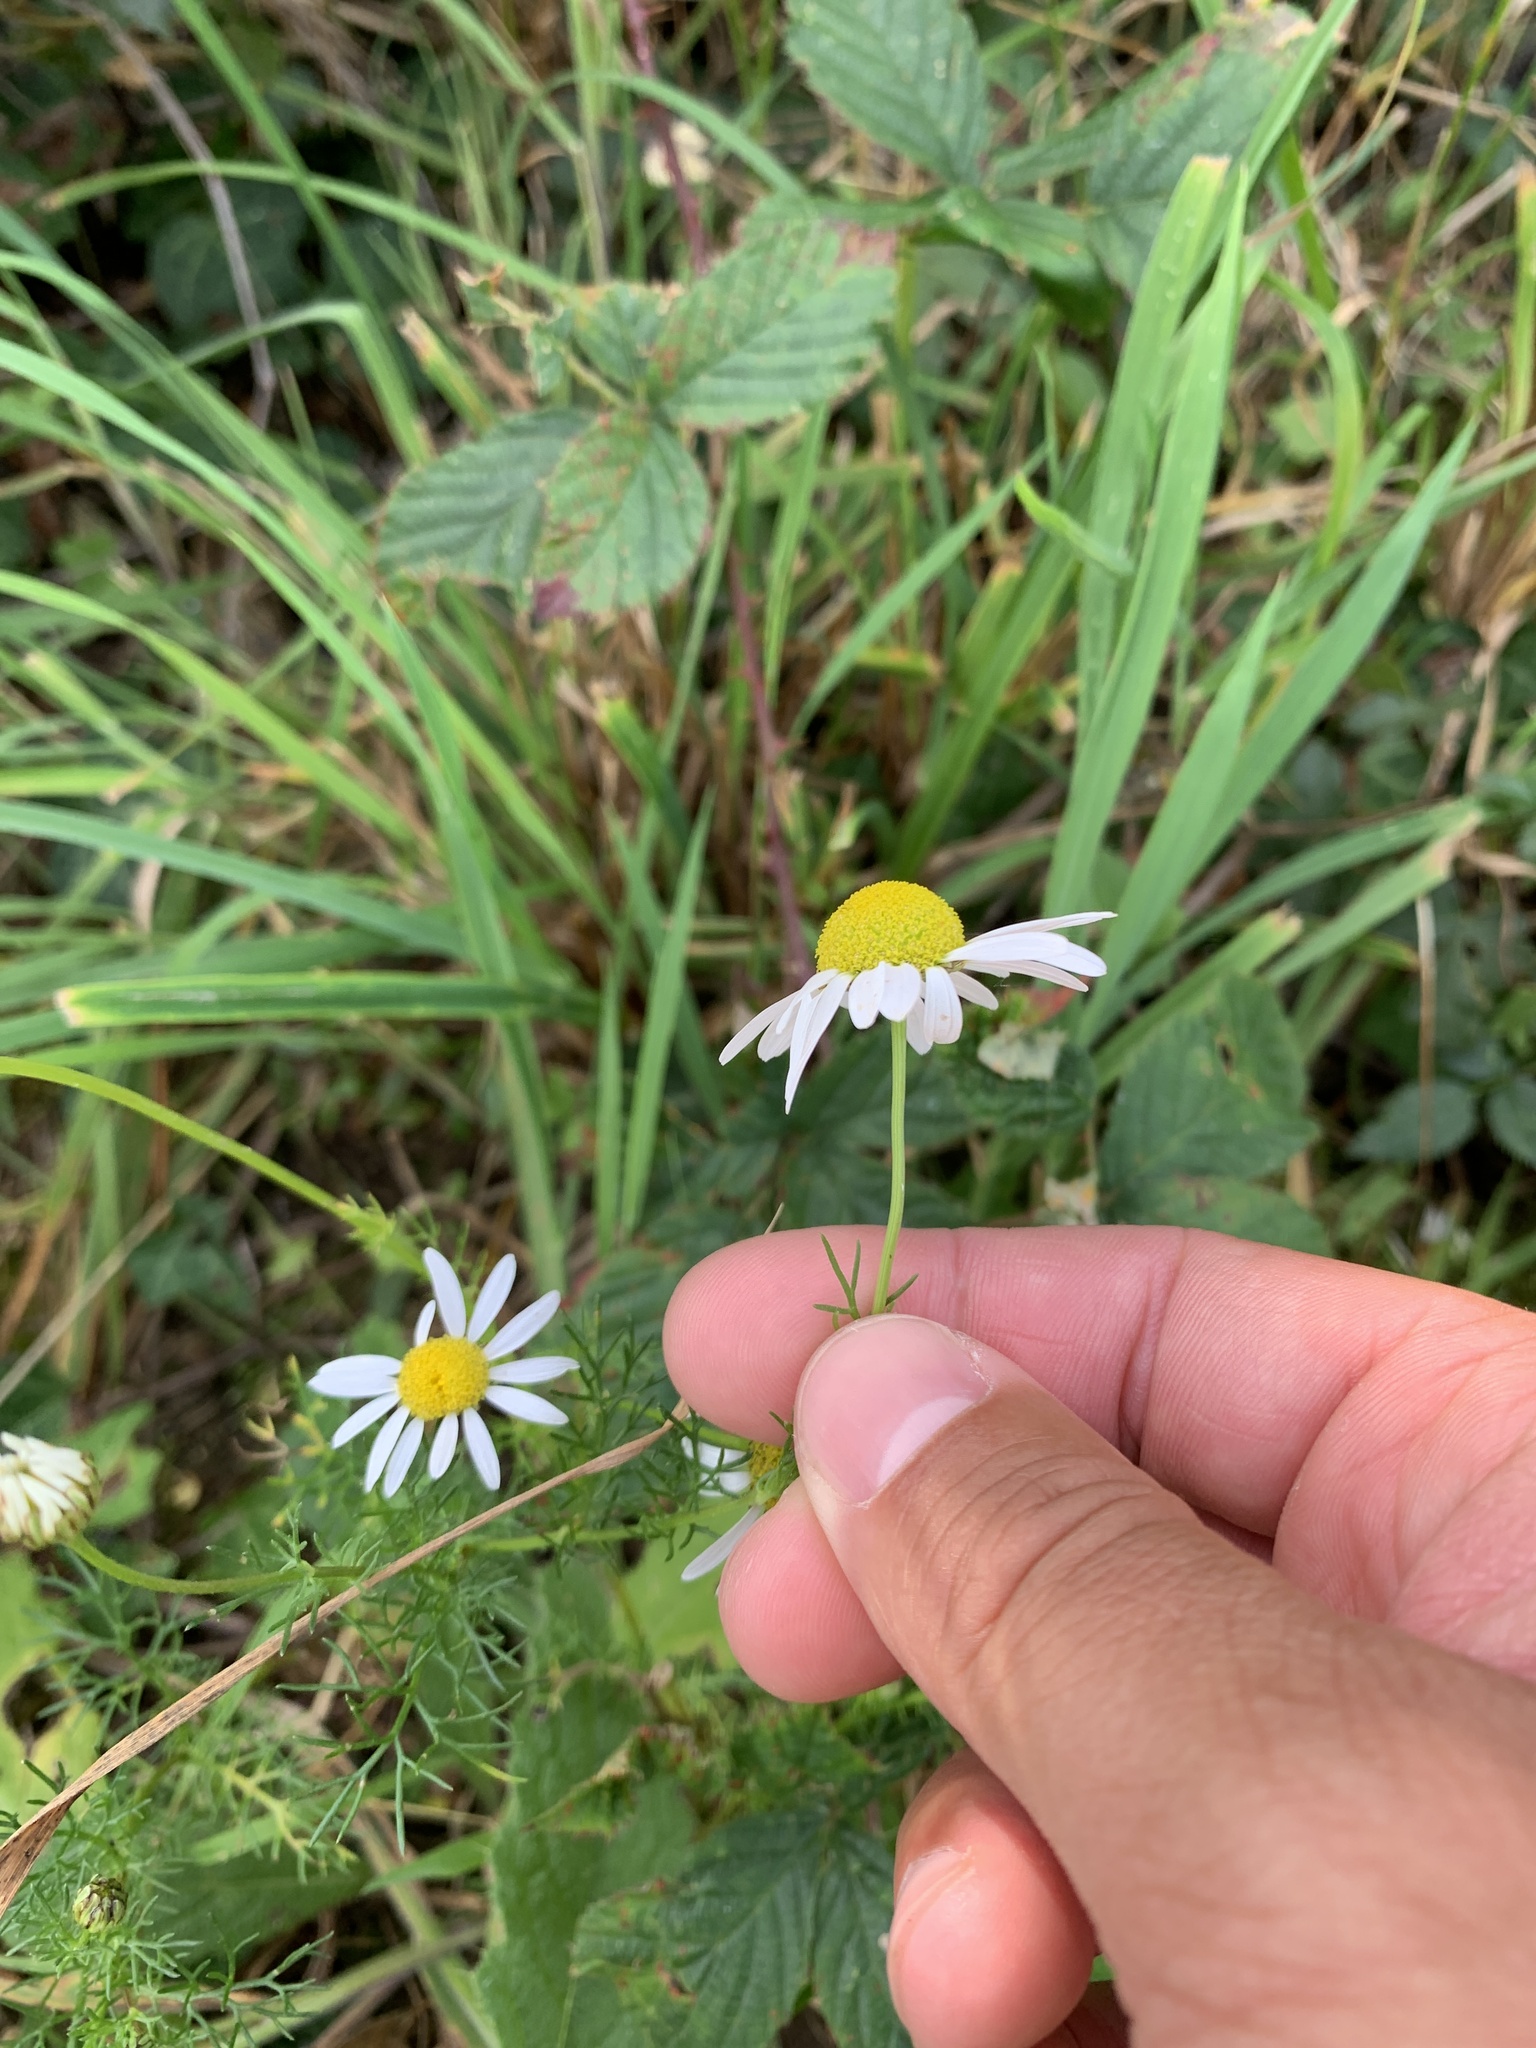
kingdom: Plantae
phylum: Tracheophyta
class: Magnoliopsida
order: Asterales
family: Asteraceae
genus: Tripleurospermum
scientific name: Tripleurospermum inodorum
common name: Scentless mayweed
